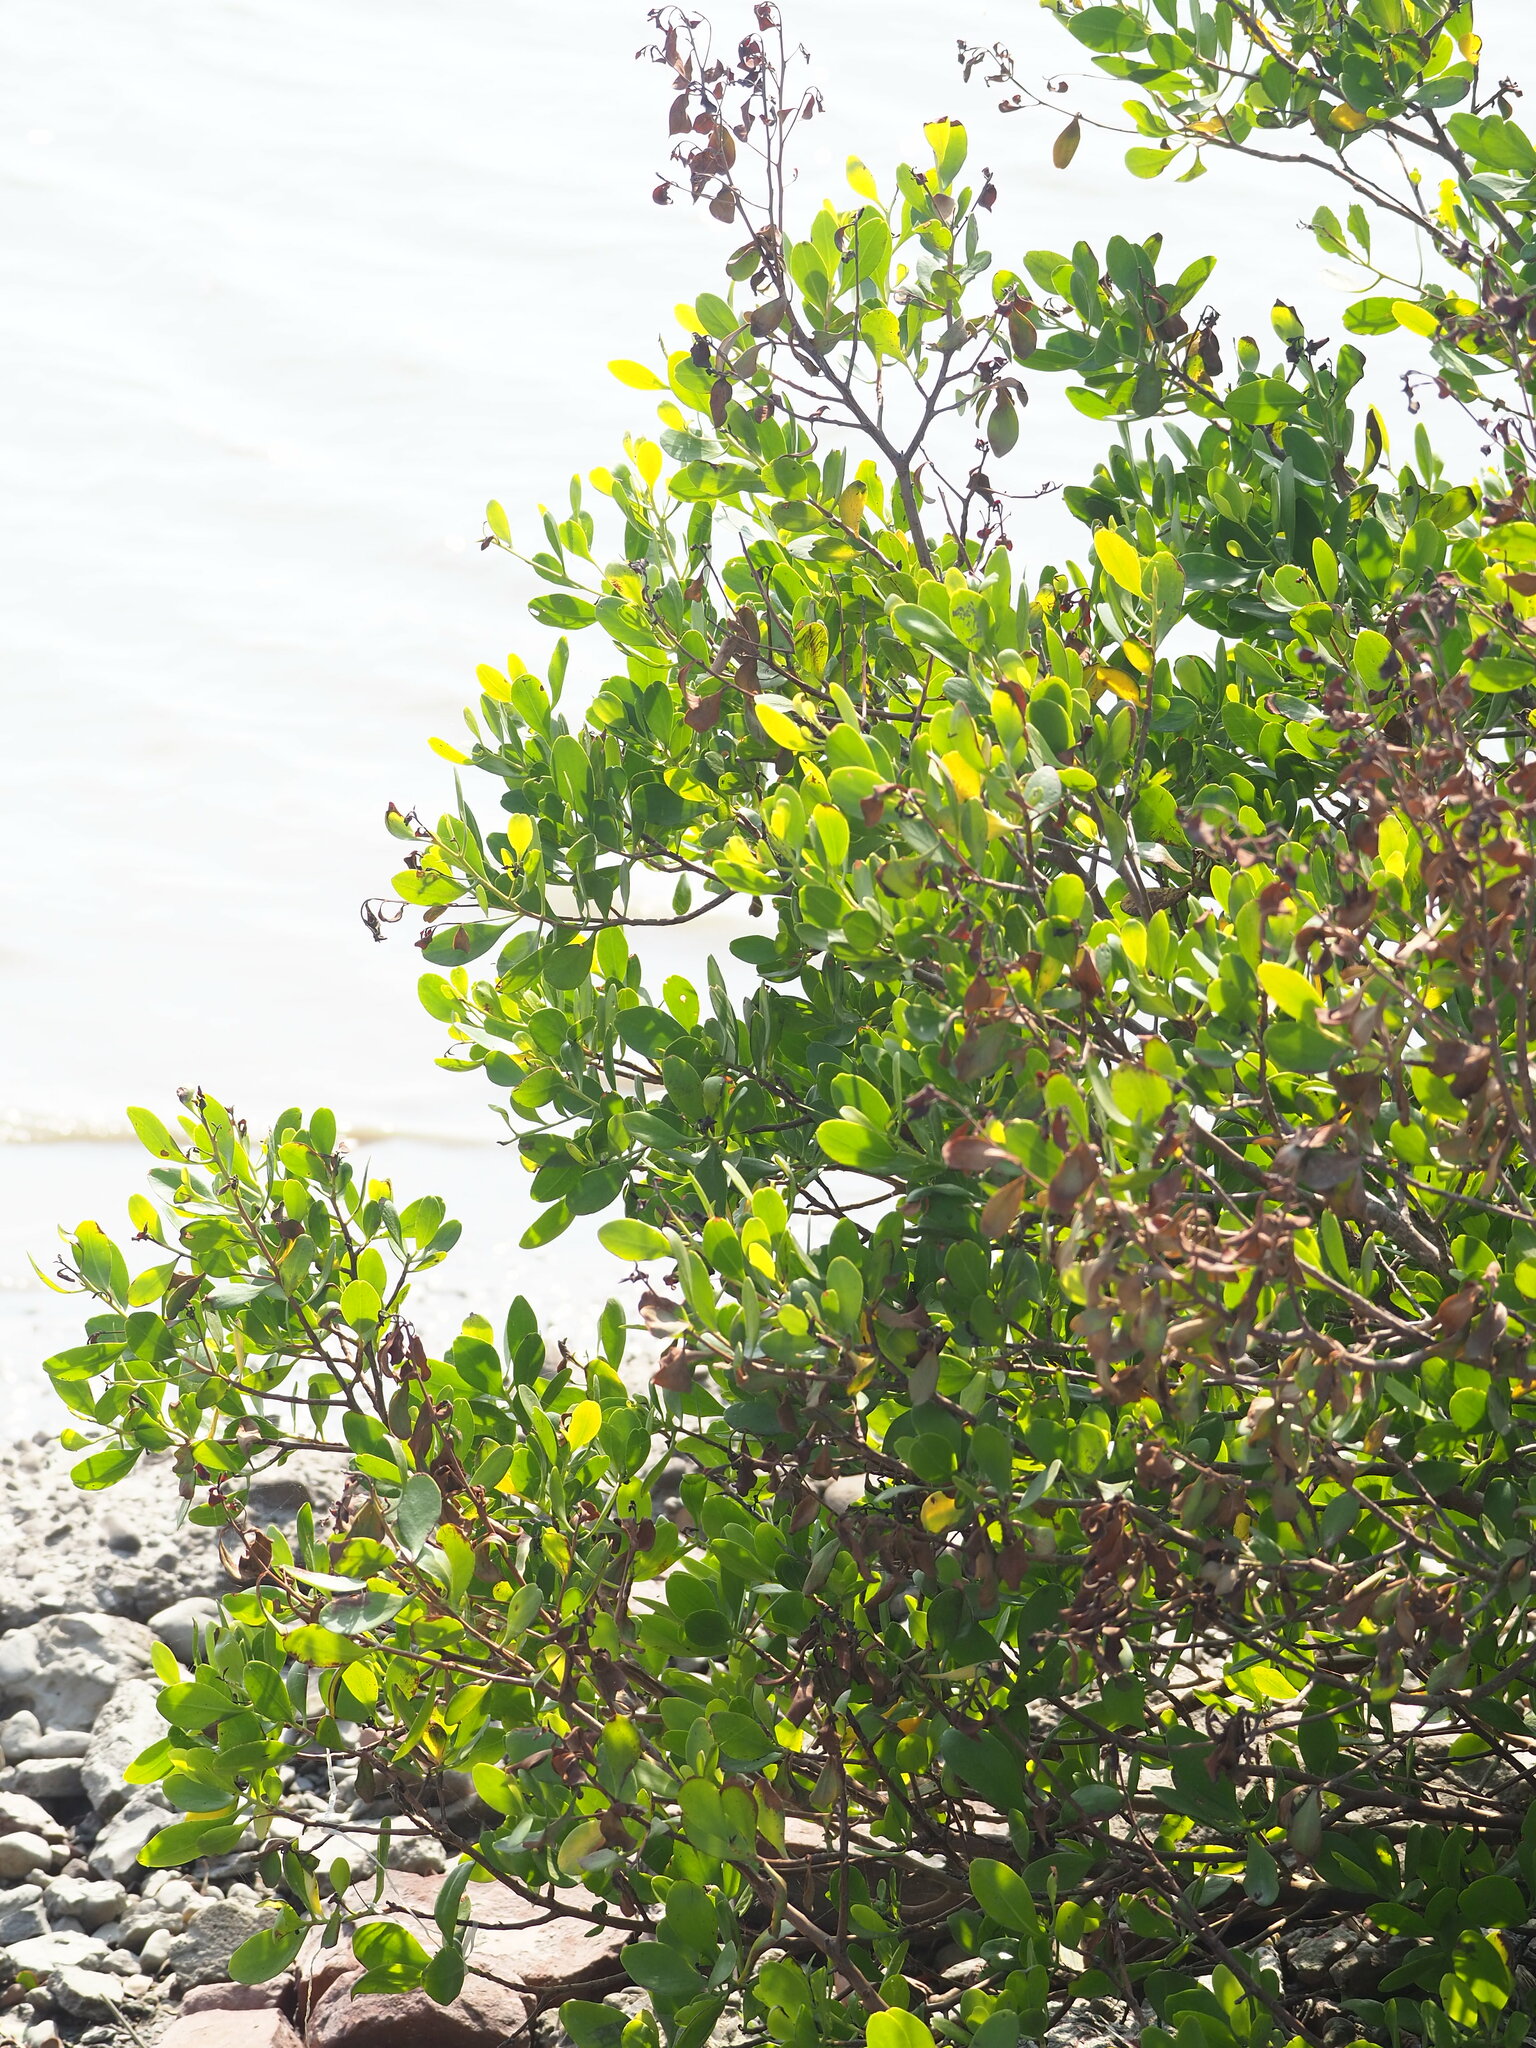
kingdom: Plantae
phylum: Tracheophyta
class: Magnoliopsida
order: Myrtales
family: Combretaceae
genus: Lumnitzera
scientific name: Lumnitzera racemosa
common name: White-flowered black mangrove
